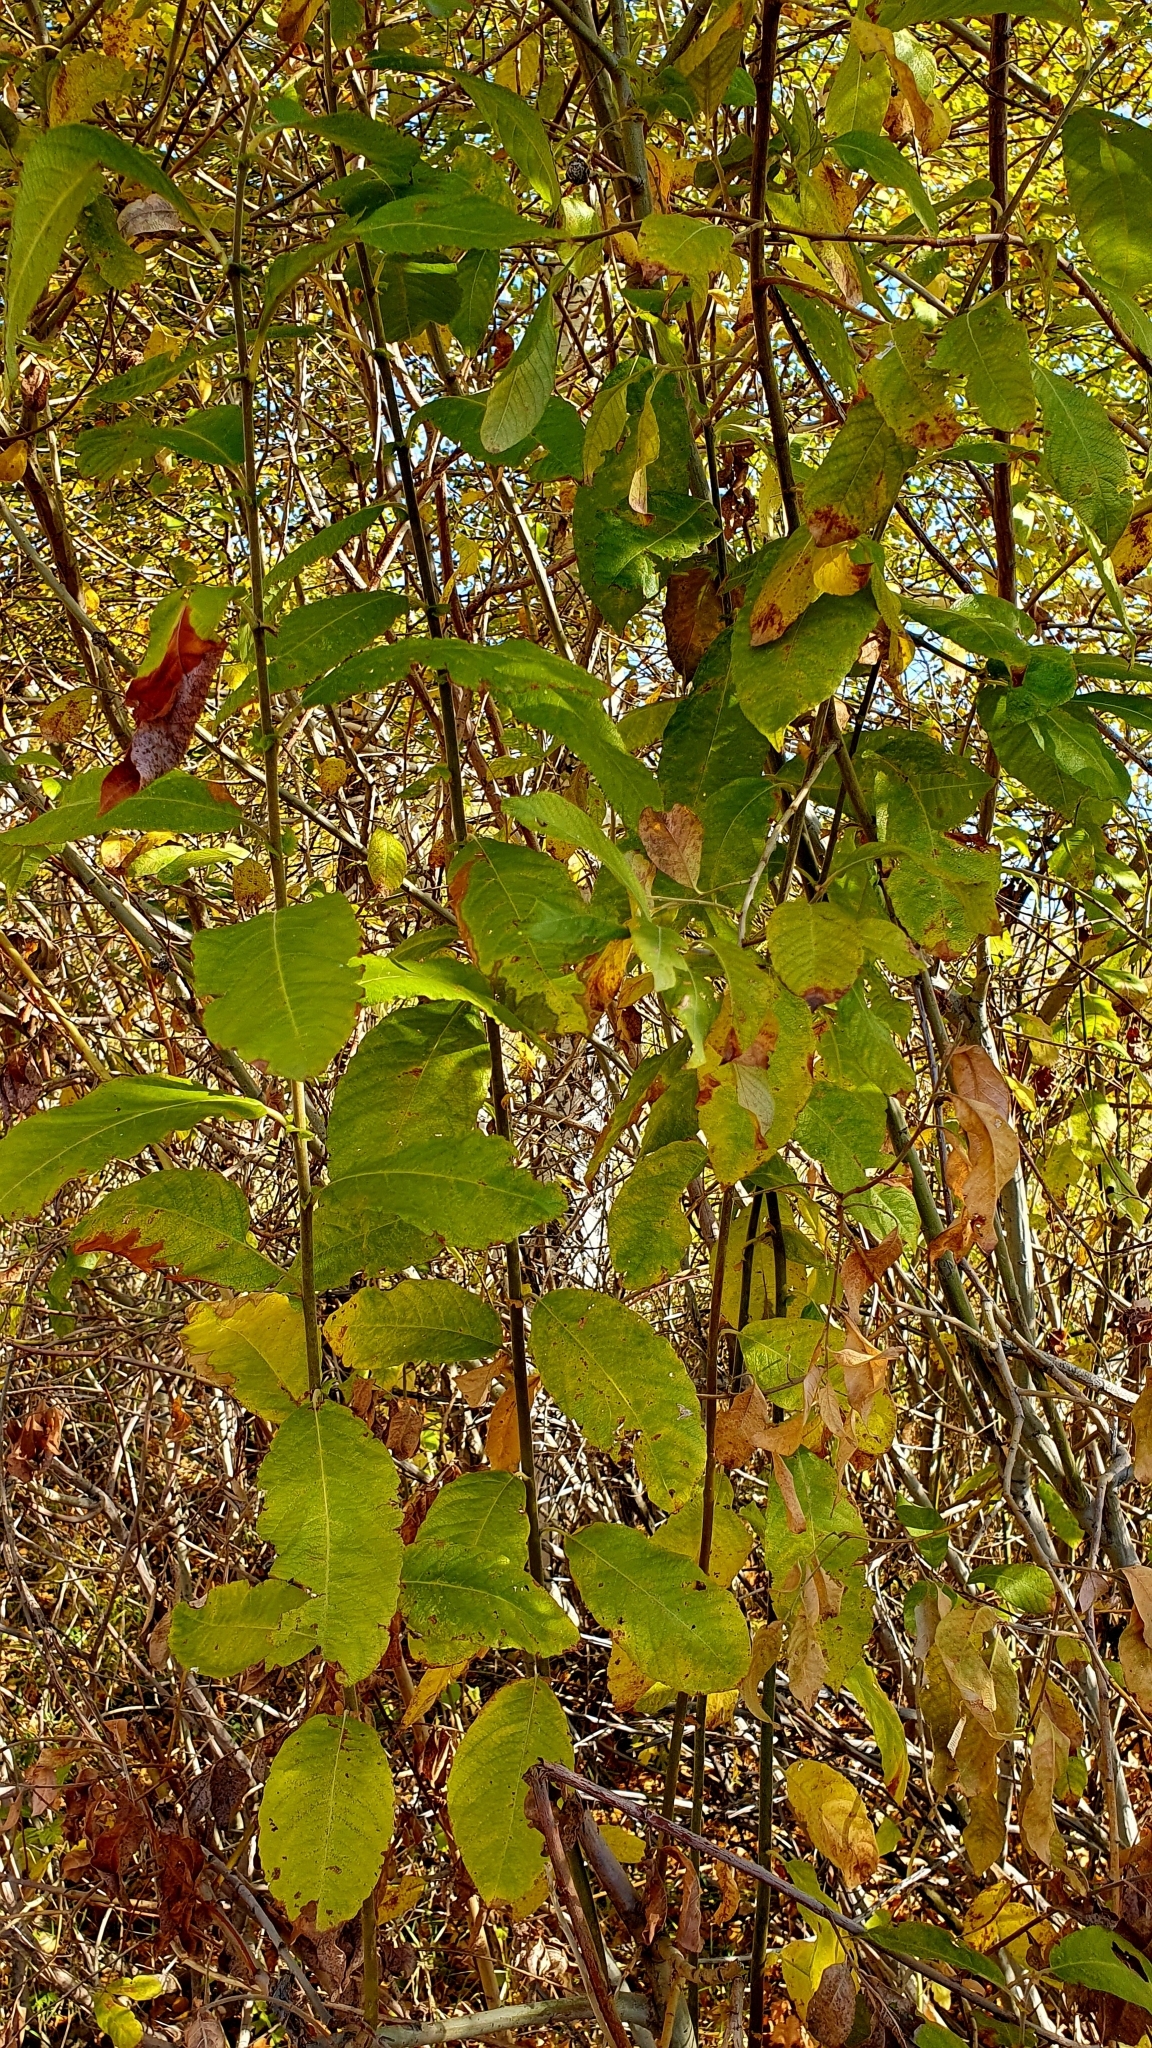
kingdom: Plantae
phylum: Tracheophyta
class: Magnoliopsida
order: Malpighiales
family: Salicaceae
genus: Salix
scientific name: Salix caprea
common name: Goat willow
